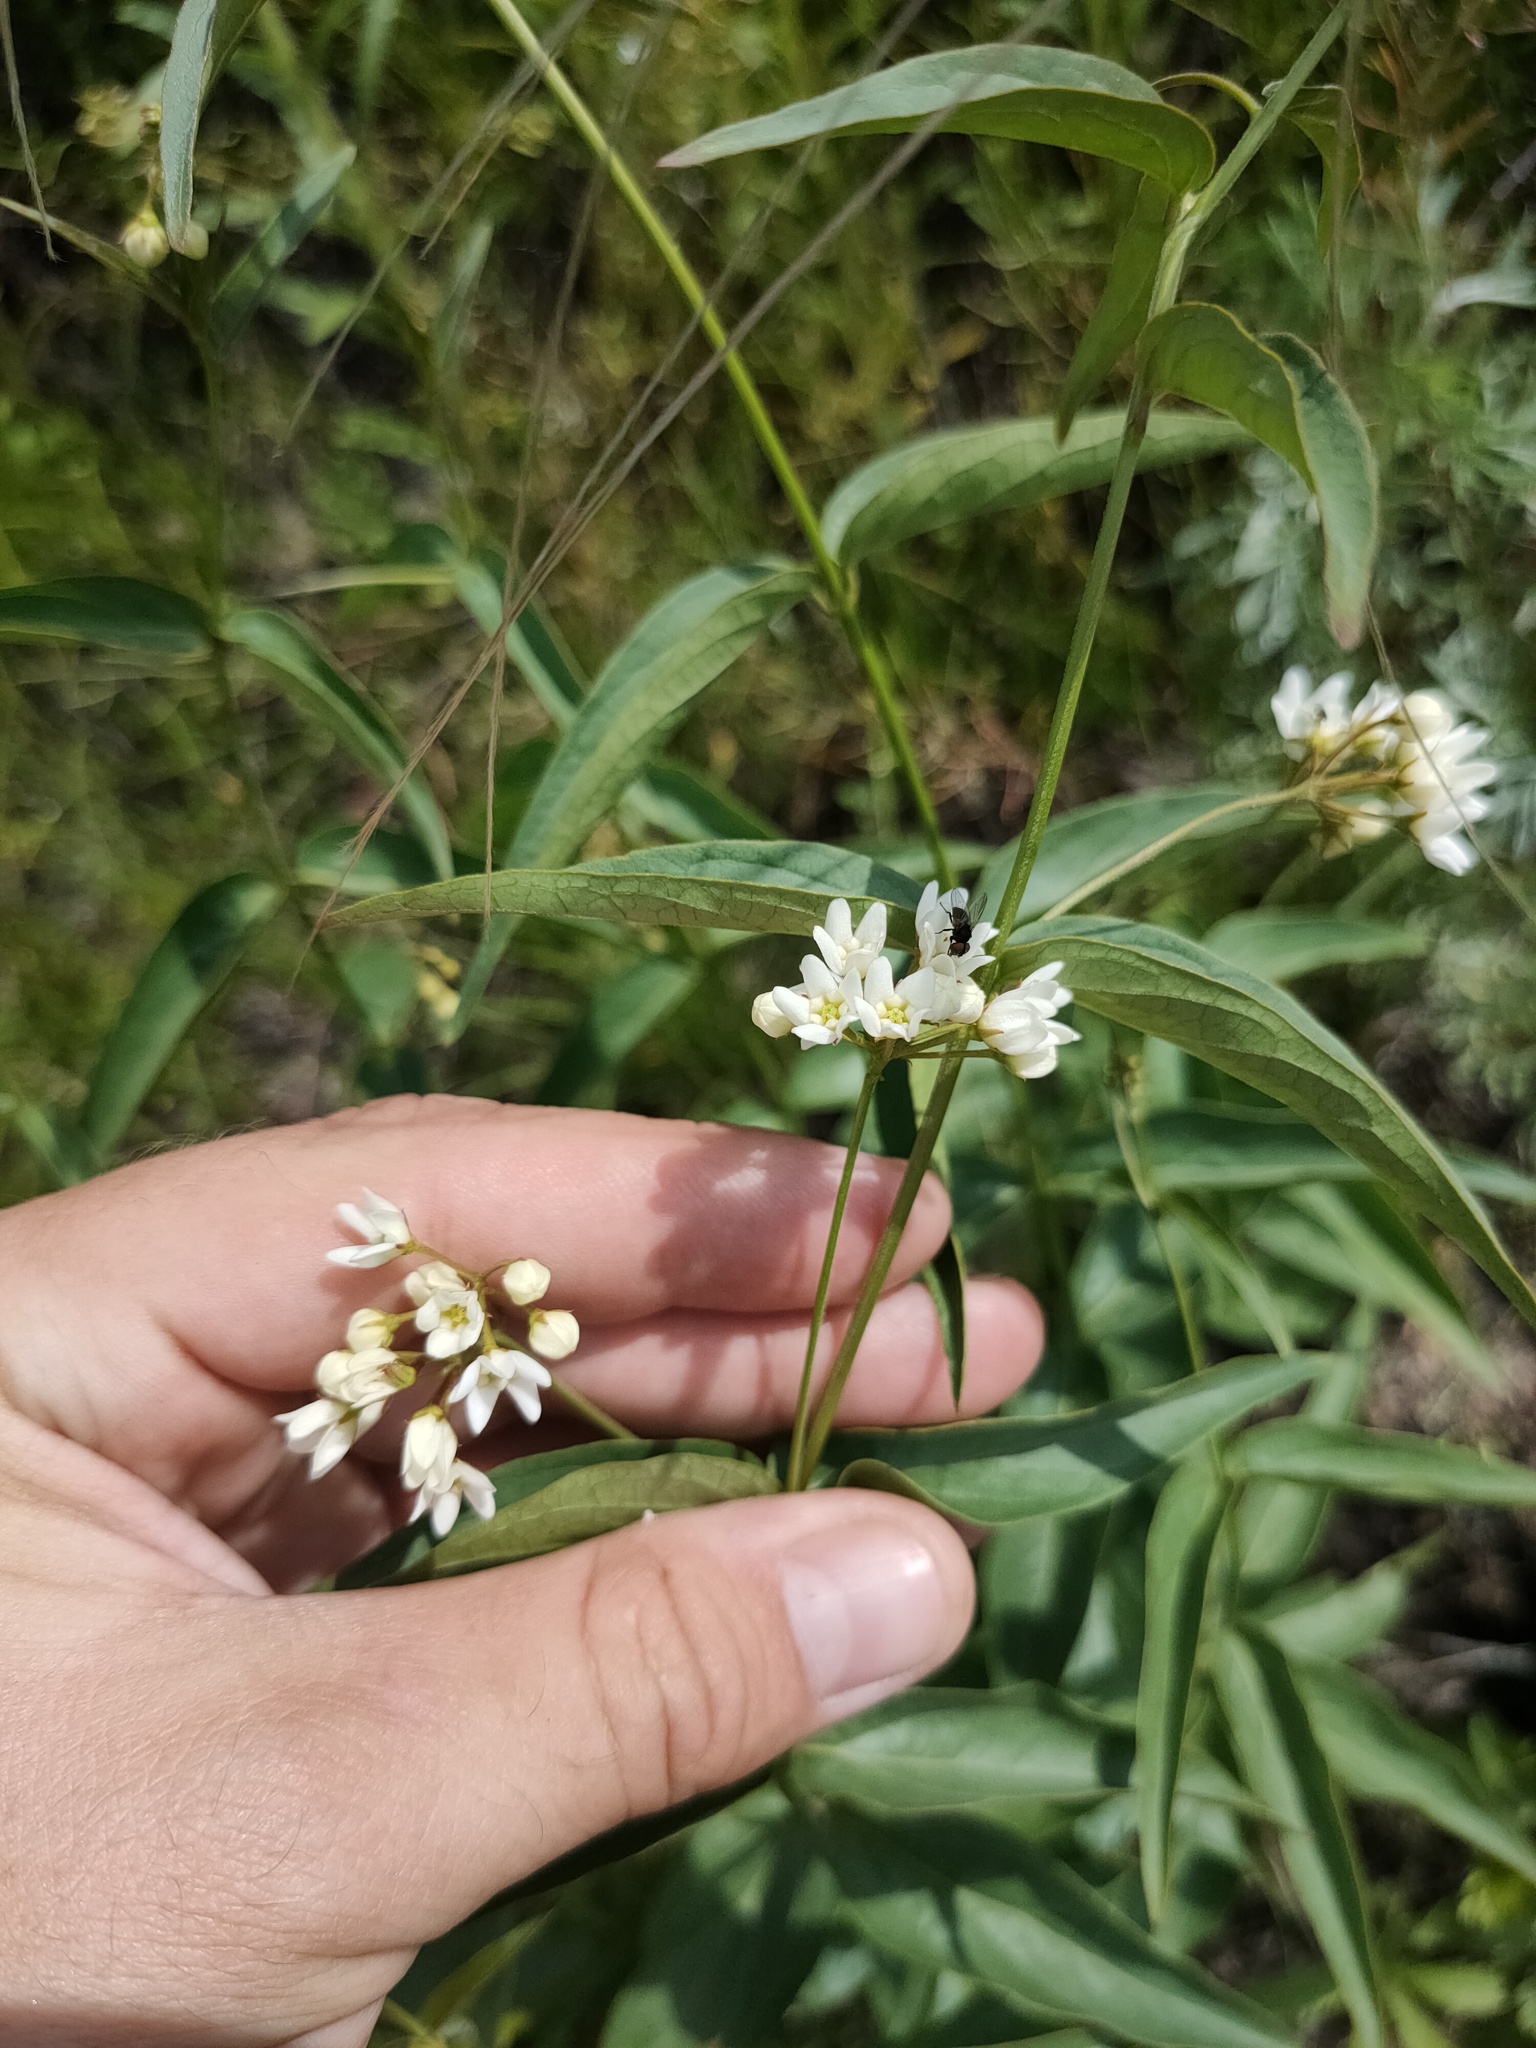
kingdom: Plantae
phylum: Tracheophyta
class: Magnoliopsida
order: Gentianales
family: Apocynaceae
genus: Vincetoxicum
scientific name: Vincetoxicum hirundinaria
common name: White swallowwort
